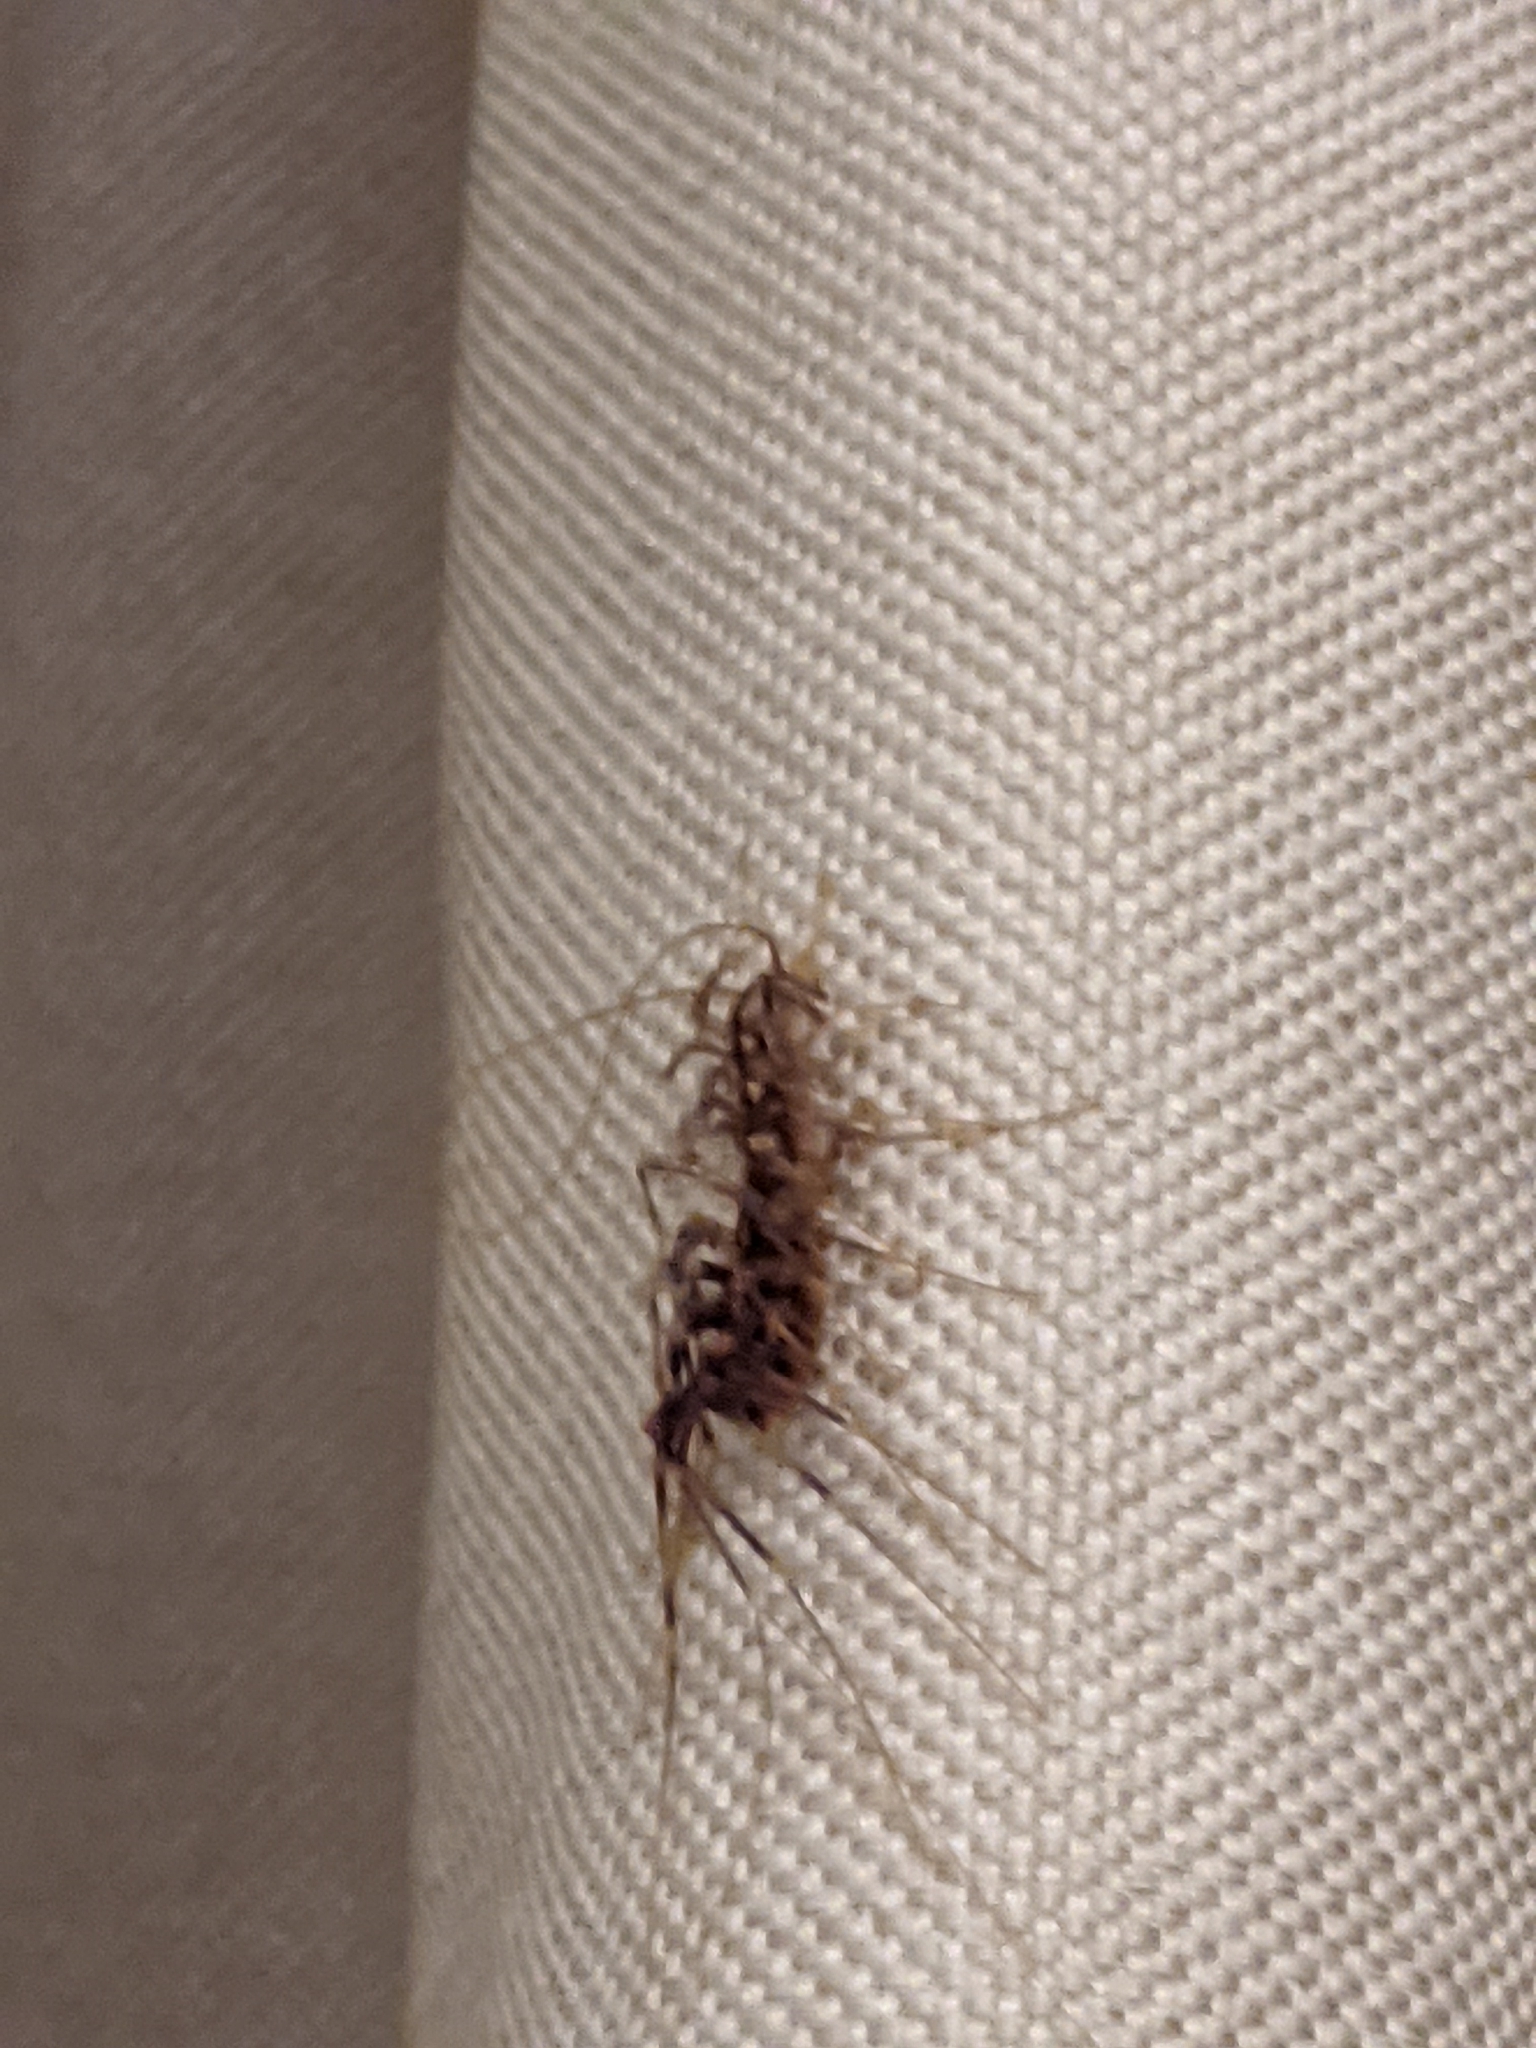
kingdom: Animalia
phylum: Arthropoda
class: Chilopoda
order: Scutigeromorpha
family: Scutigeridae
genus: Scutigera
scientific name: Scutigera coleoptrata
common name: House centipede
